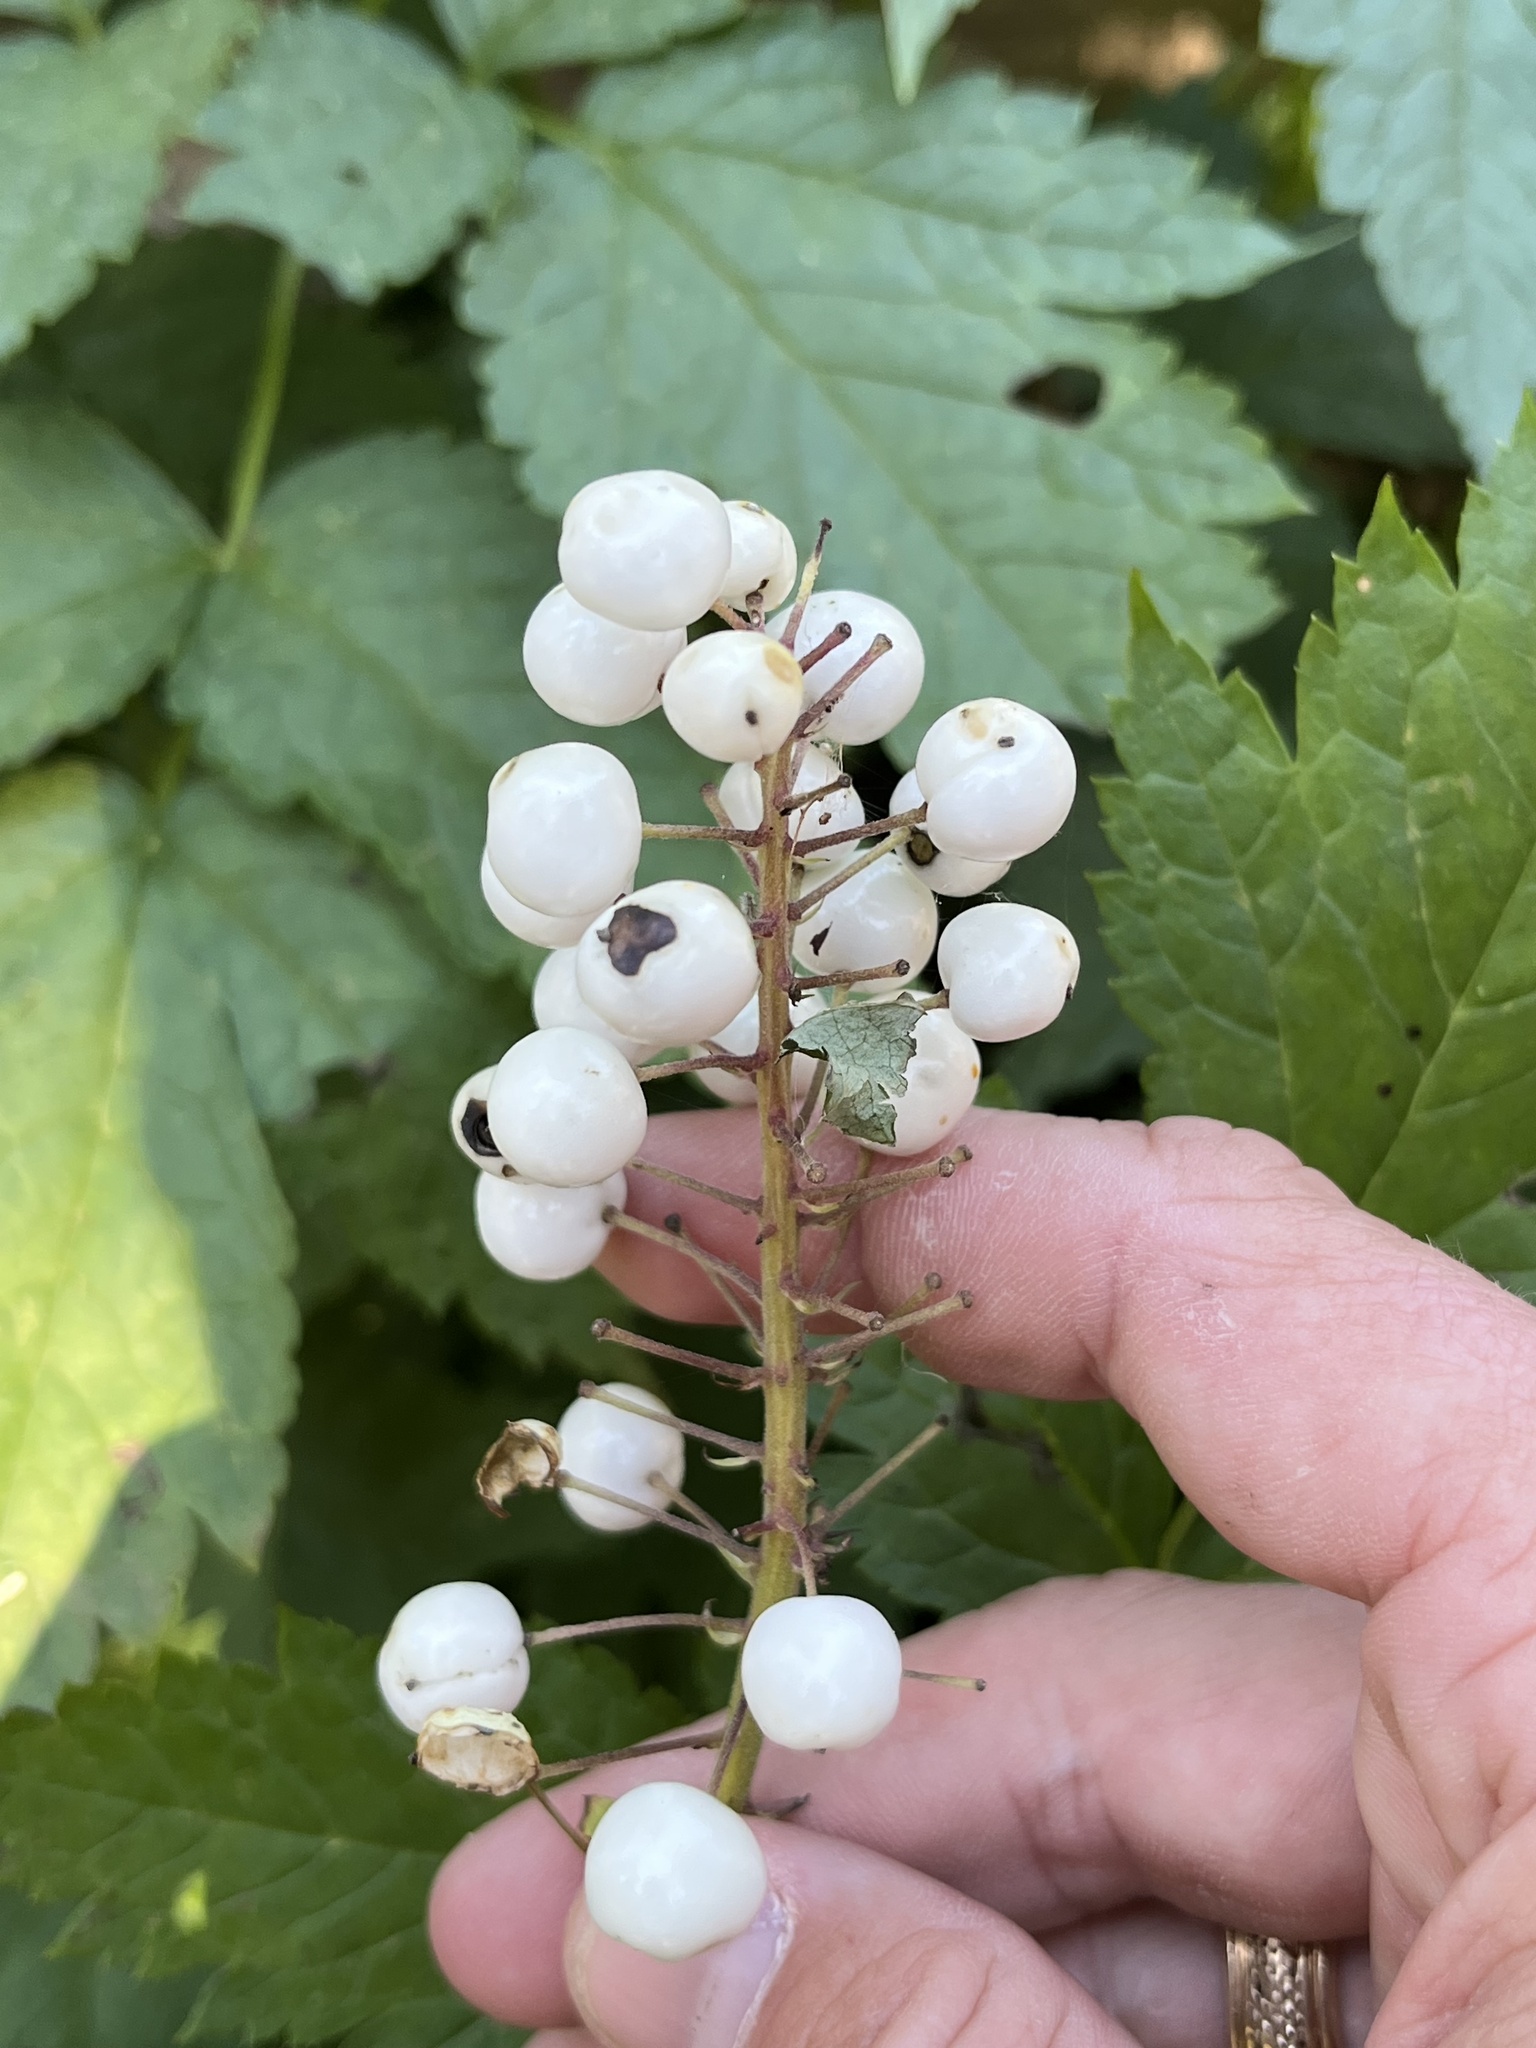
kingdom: Plantae
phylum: Tracheophyta
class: Magnoliopsida
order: Ranunculales
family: Ranunculaceae
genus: Actaea
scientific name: Actaea rubra
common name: Red baneberry
